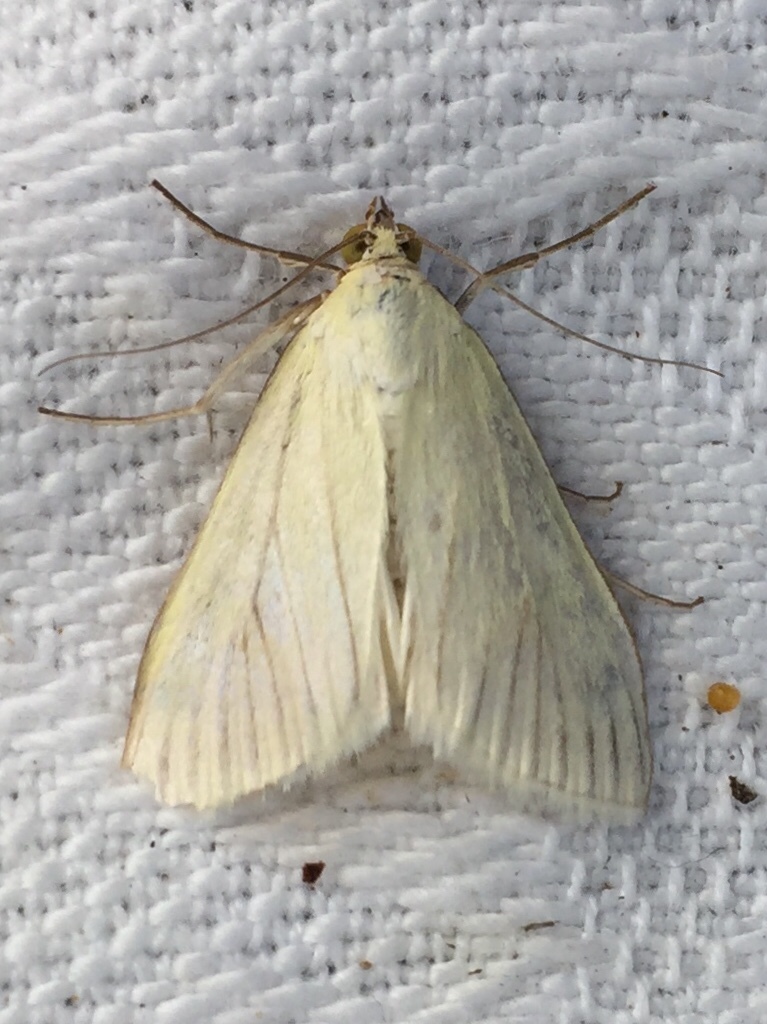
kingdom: Animalia
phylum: Arthropoda
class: Insecta
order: Lepidoptera
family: Crambidae
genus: Sitochroa
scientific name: Sitochroa palealis
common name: Greenish-yellow sitochroa moth
